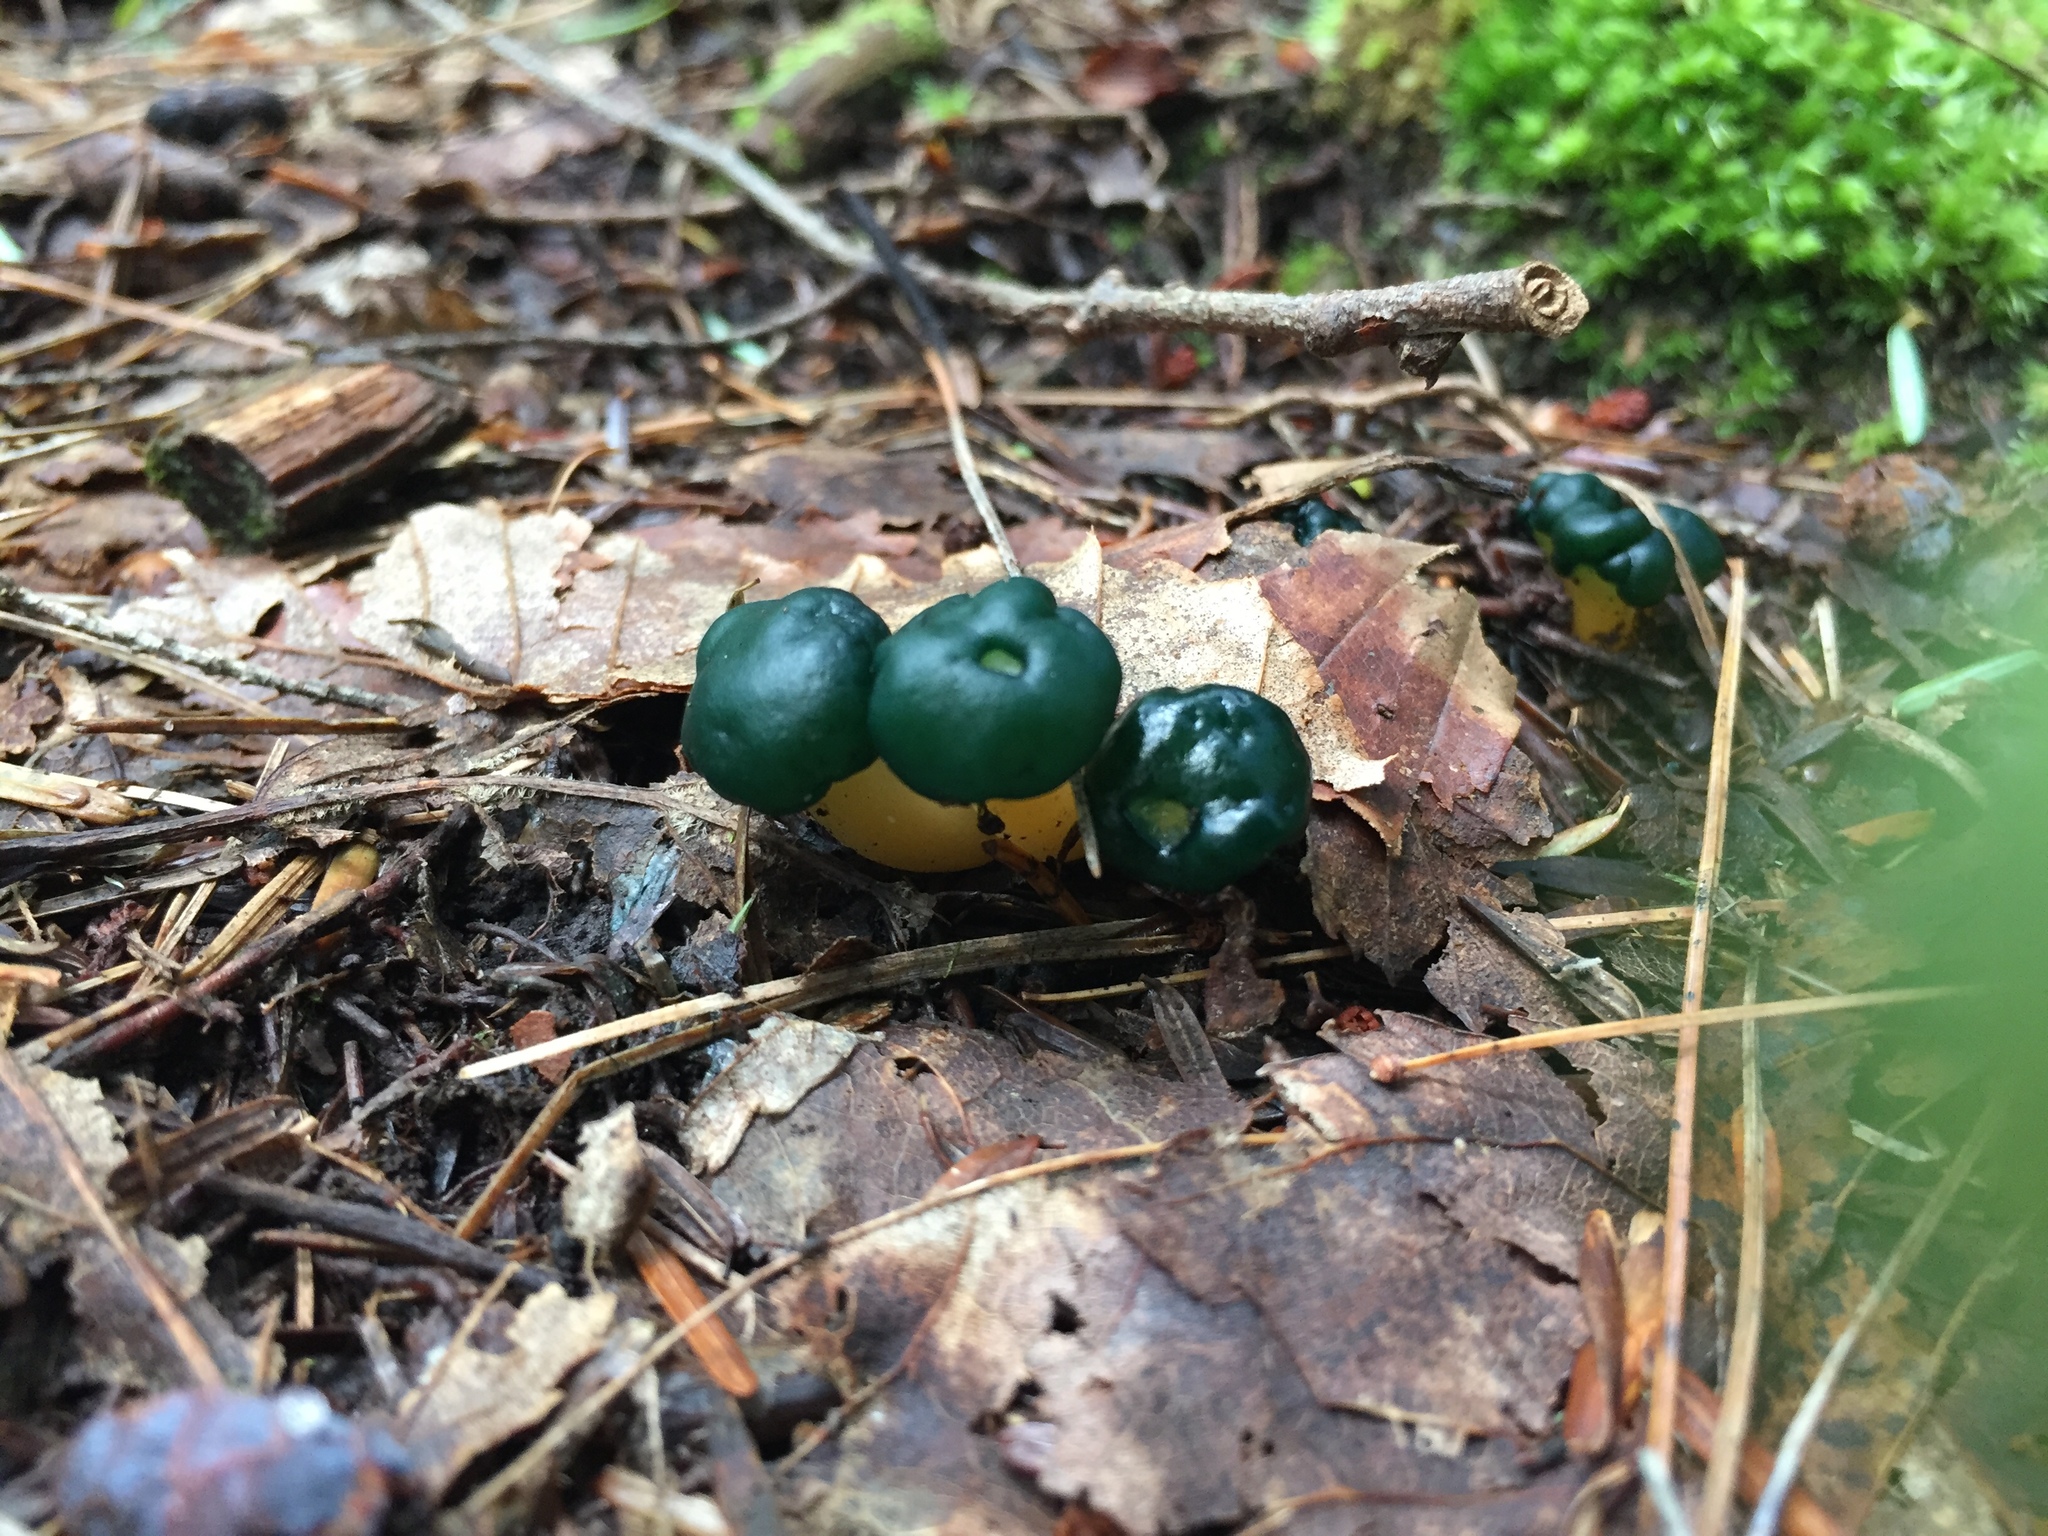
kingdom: Fungi
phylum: Ascomycota
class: Leotiomycetes
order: Leotiales
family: Leotiaceae
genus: Leotia
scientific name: Leotia lubrica
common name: Jellybaby
